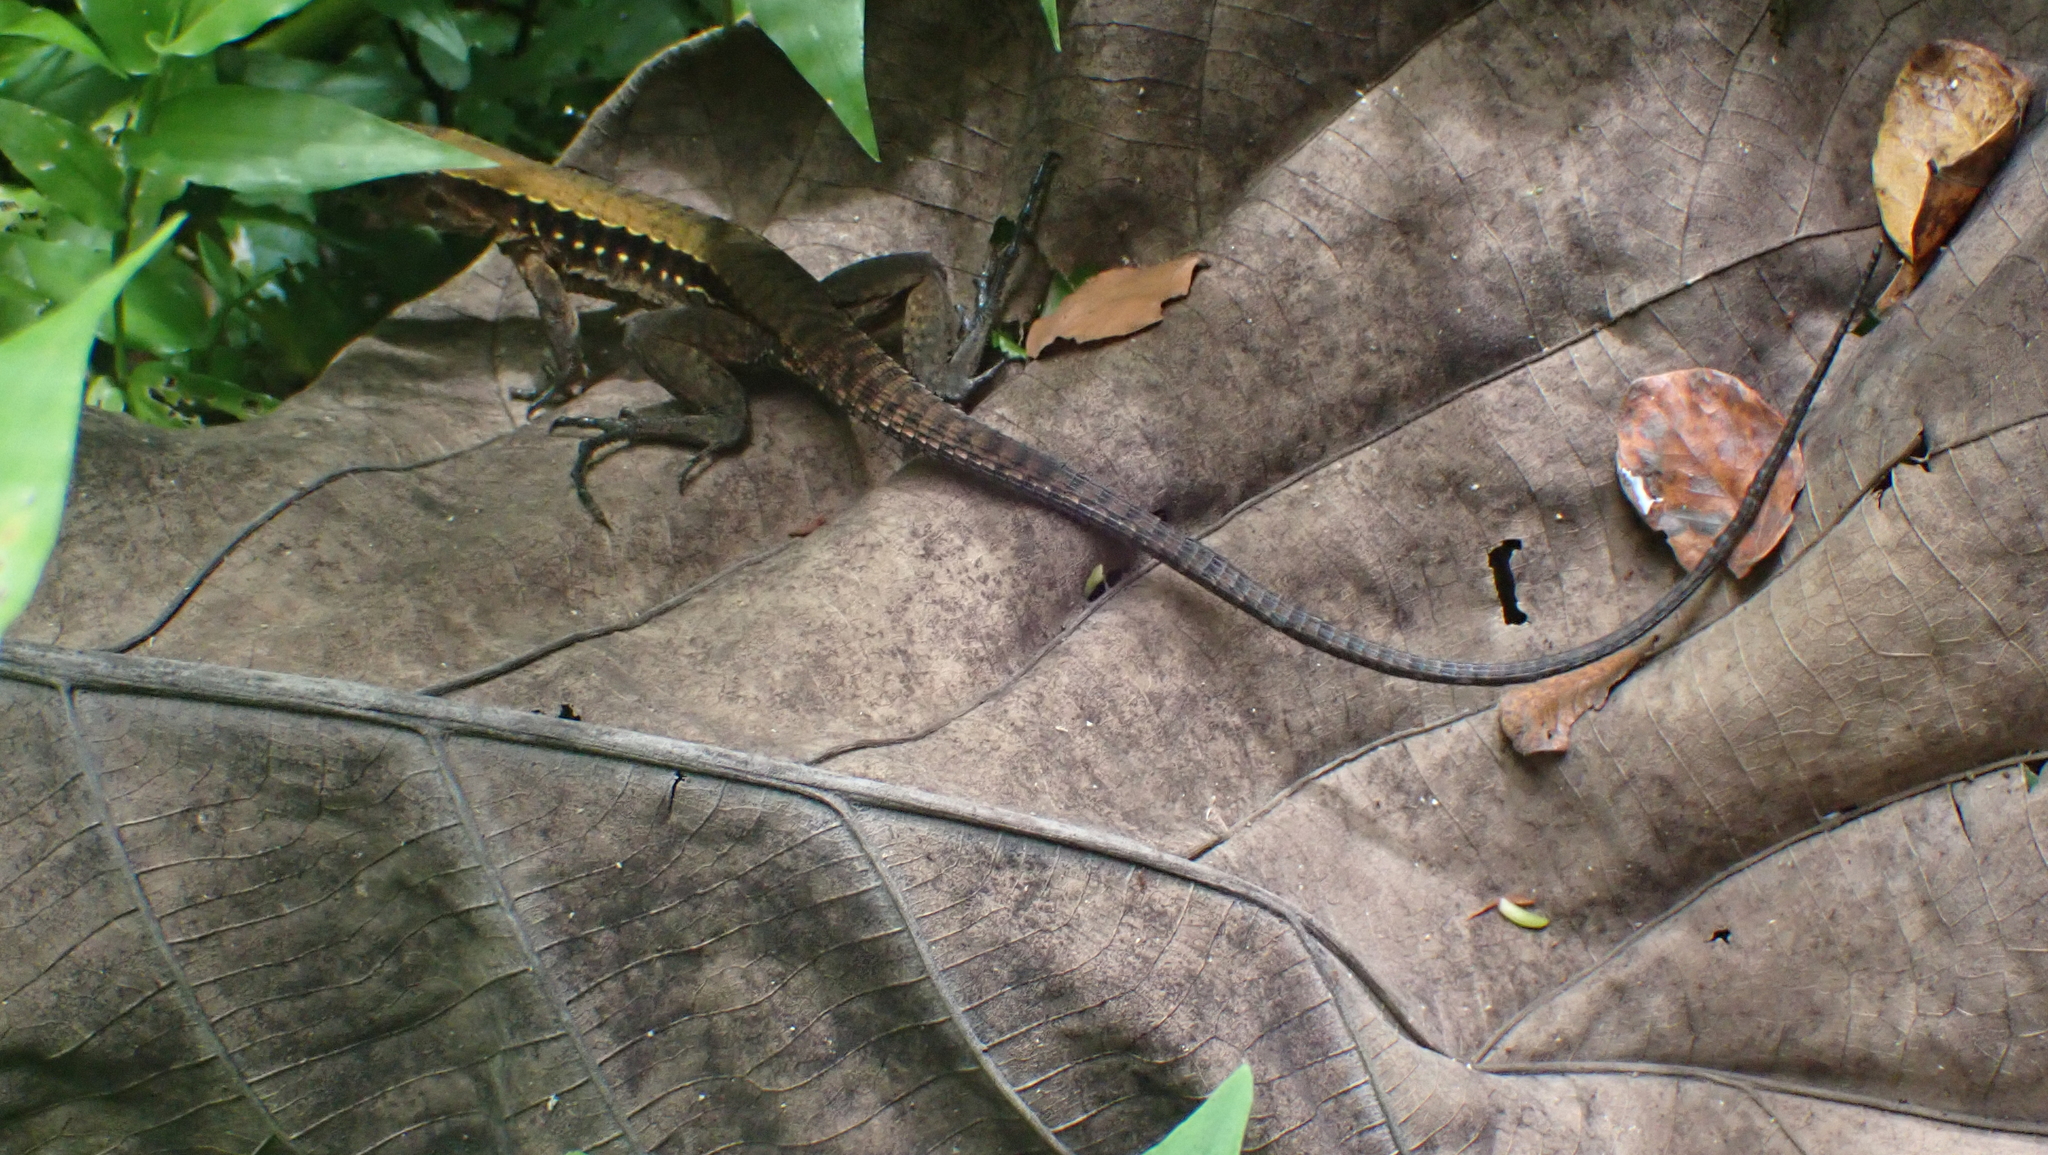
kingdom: Animalia
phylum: Chordata
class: Squamata
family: Teiidae
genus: Holcosus
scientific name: Holcosus leptophrys
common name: Delicate ameiva
